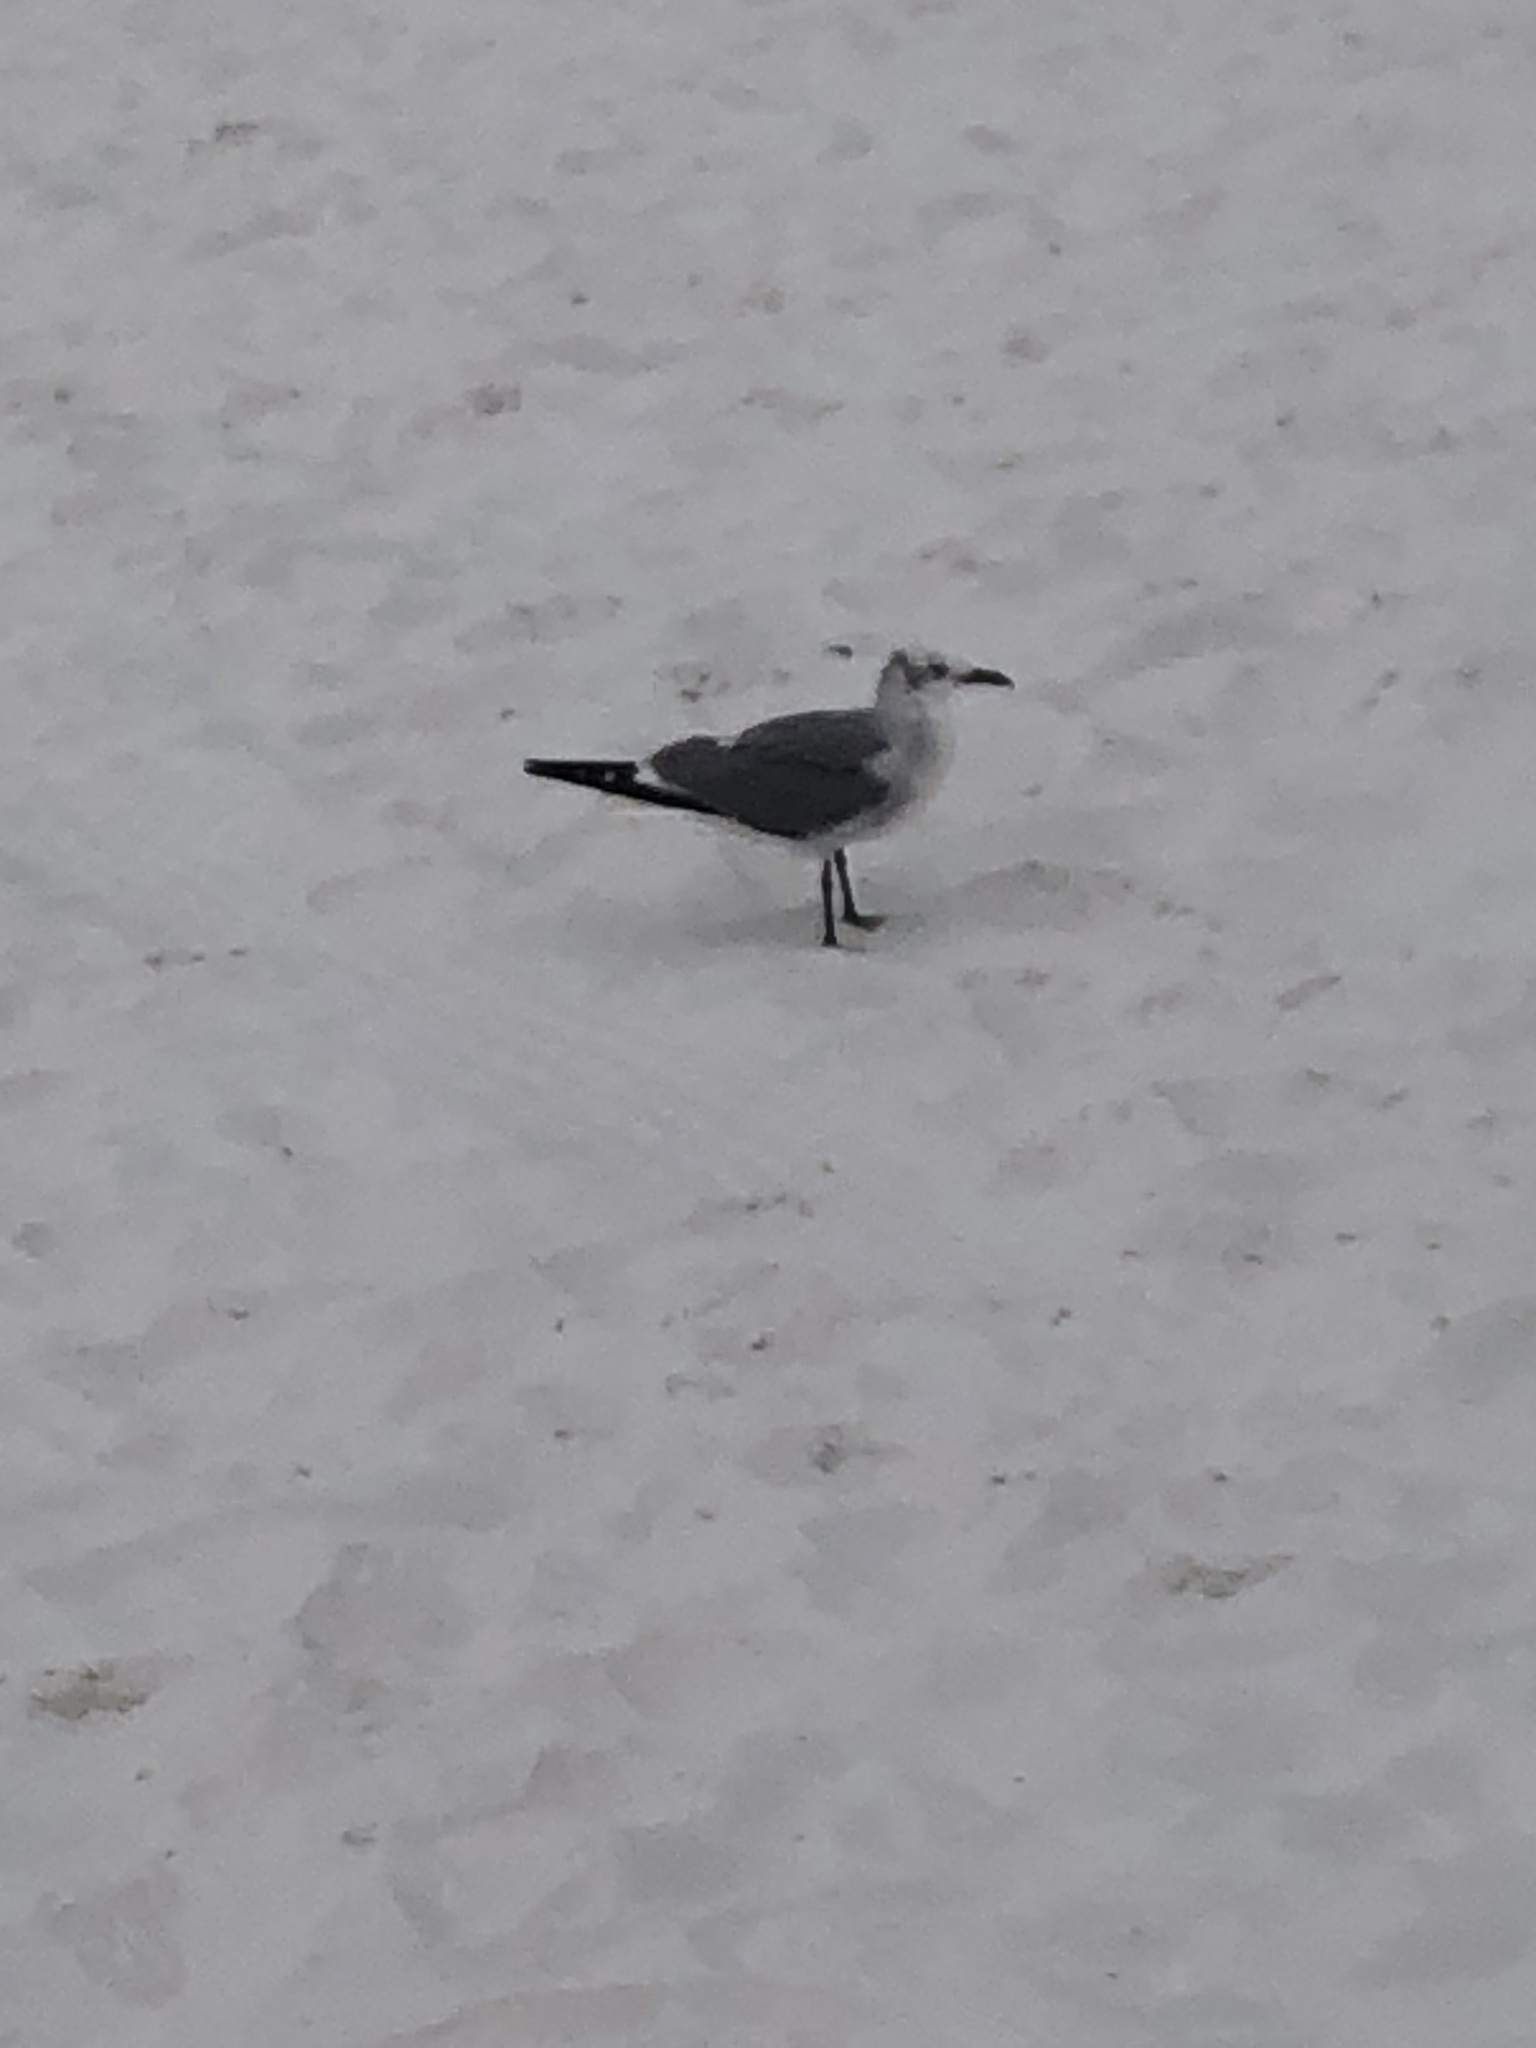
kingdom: Animalia
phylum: Chordata
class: Aves
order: Charadriiformes
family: Laridae
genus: Leucophaeus
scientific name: Leucophaeus atricilla
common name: Laughing gull
